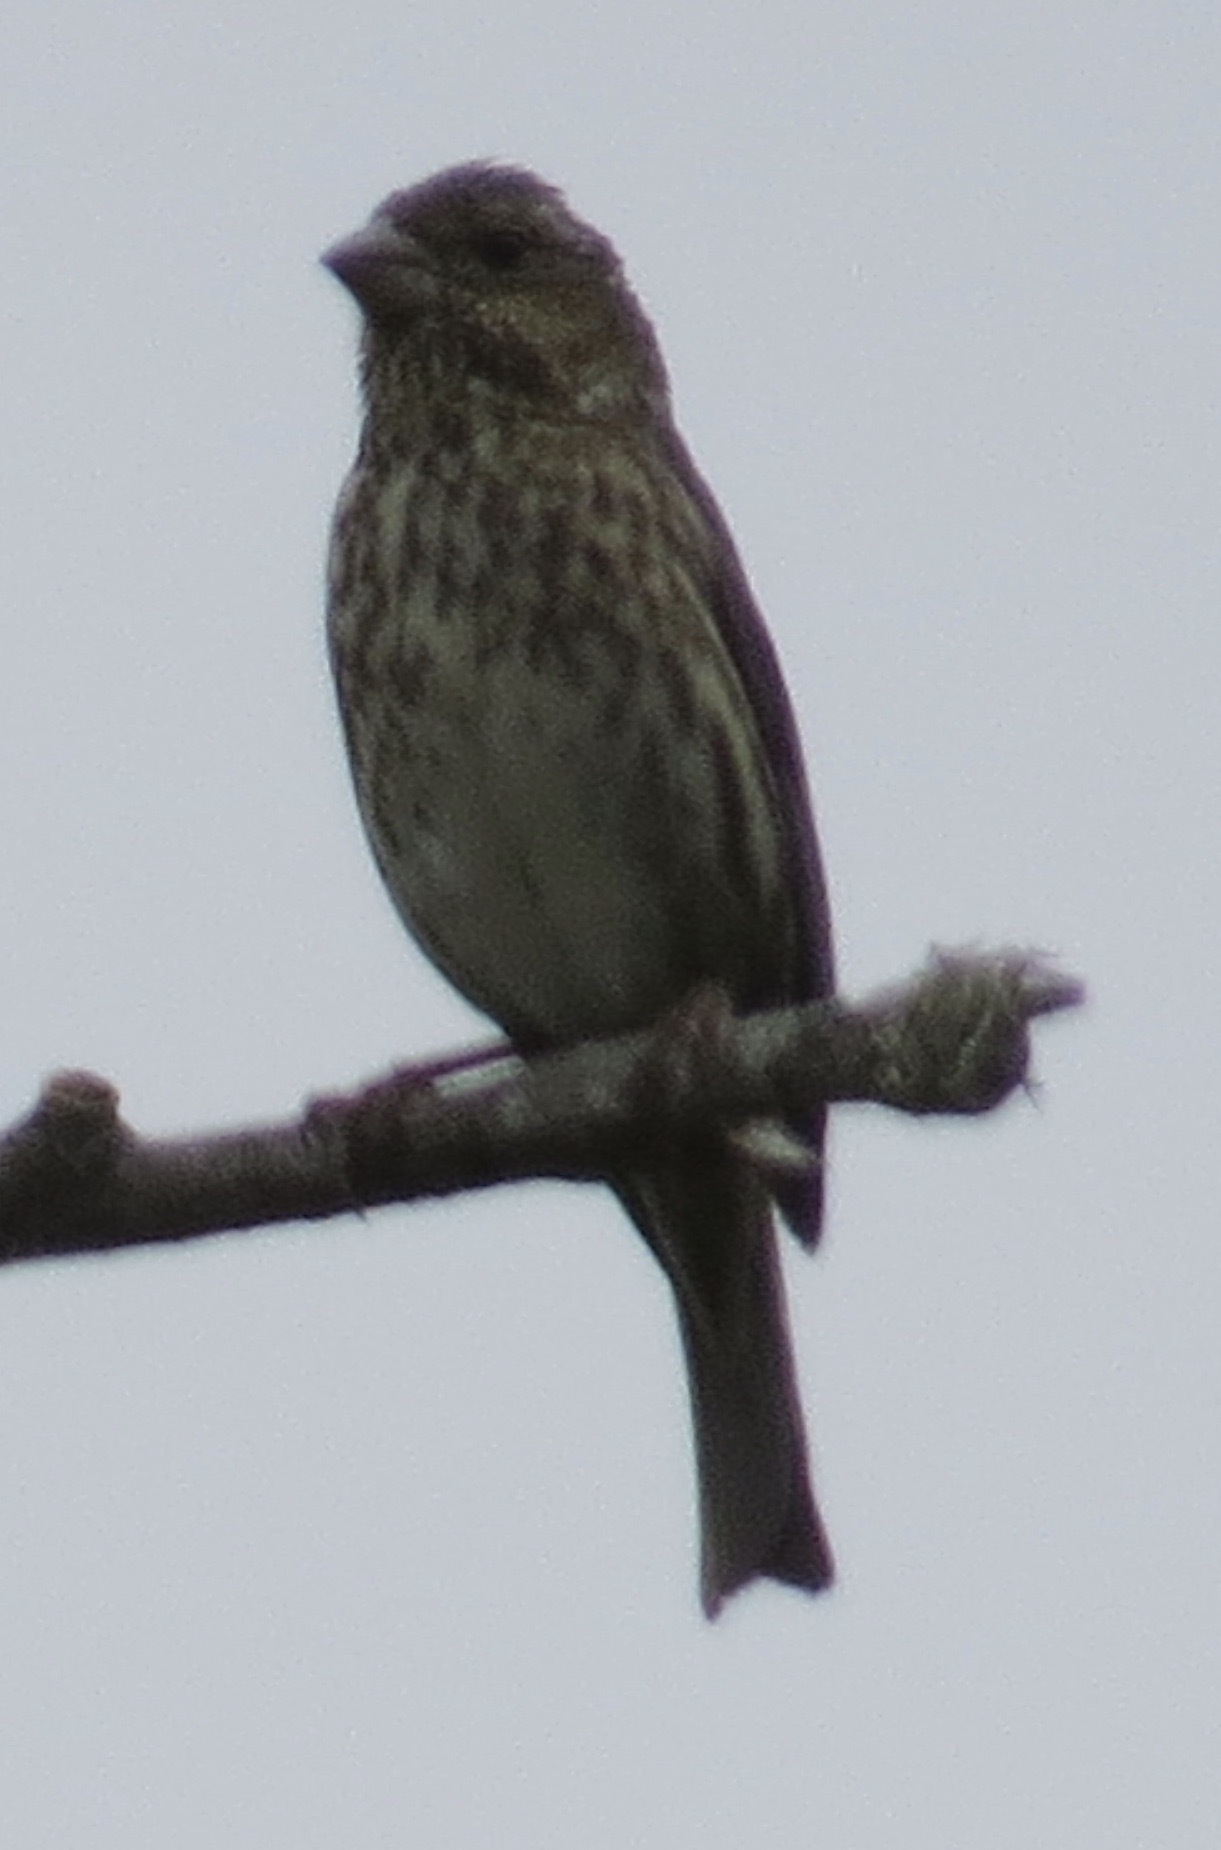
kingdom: Animalia
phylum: Chordata
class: Aves
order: Passeriformes
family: Fringillidae
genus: Haemorhous
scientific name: Haemorhous purpureus
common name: Purple finch
